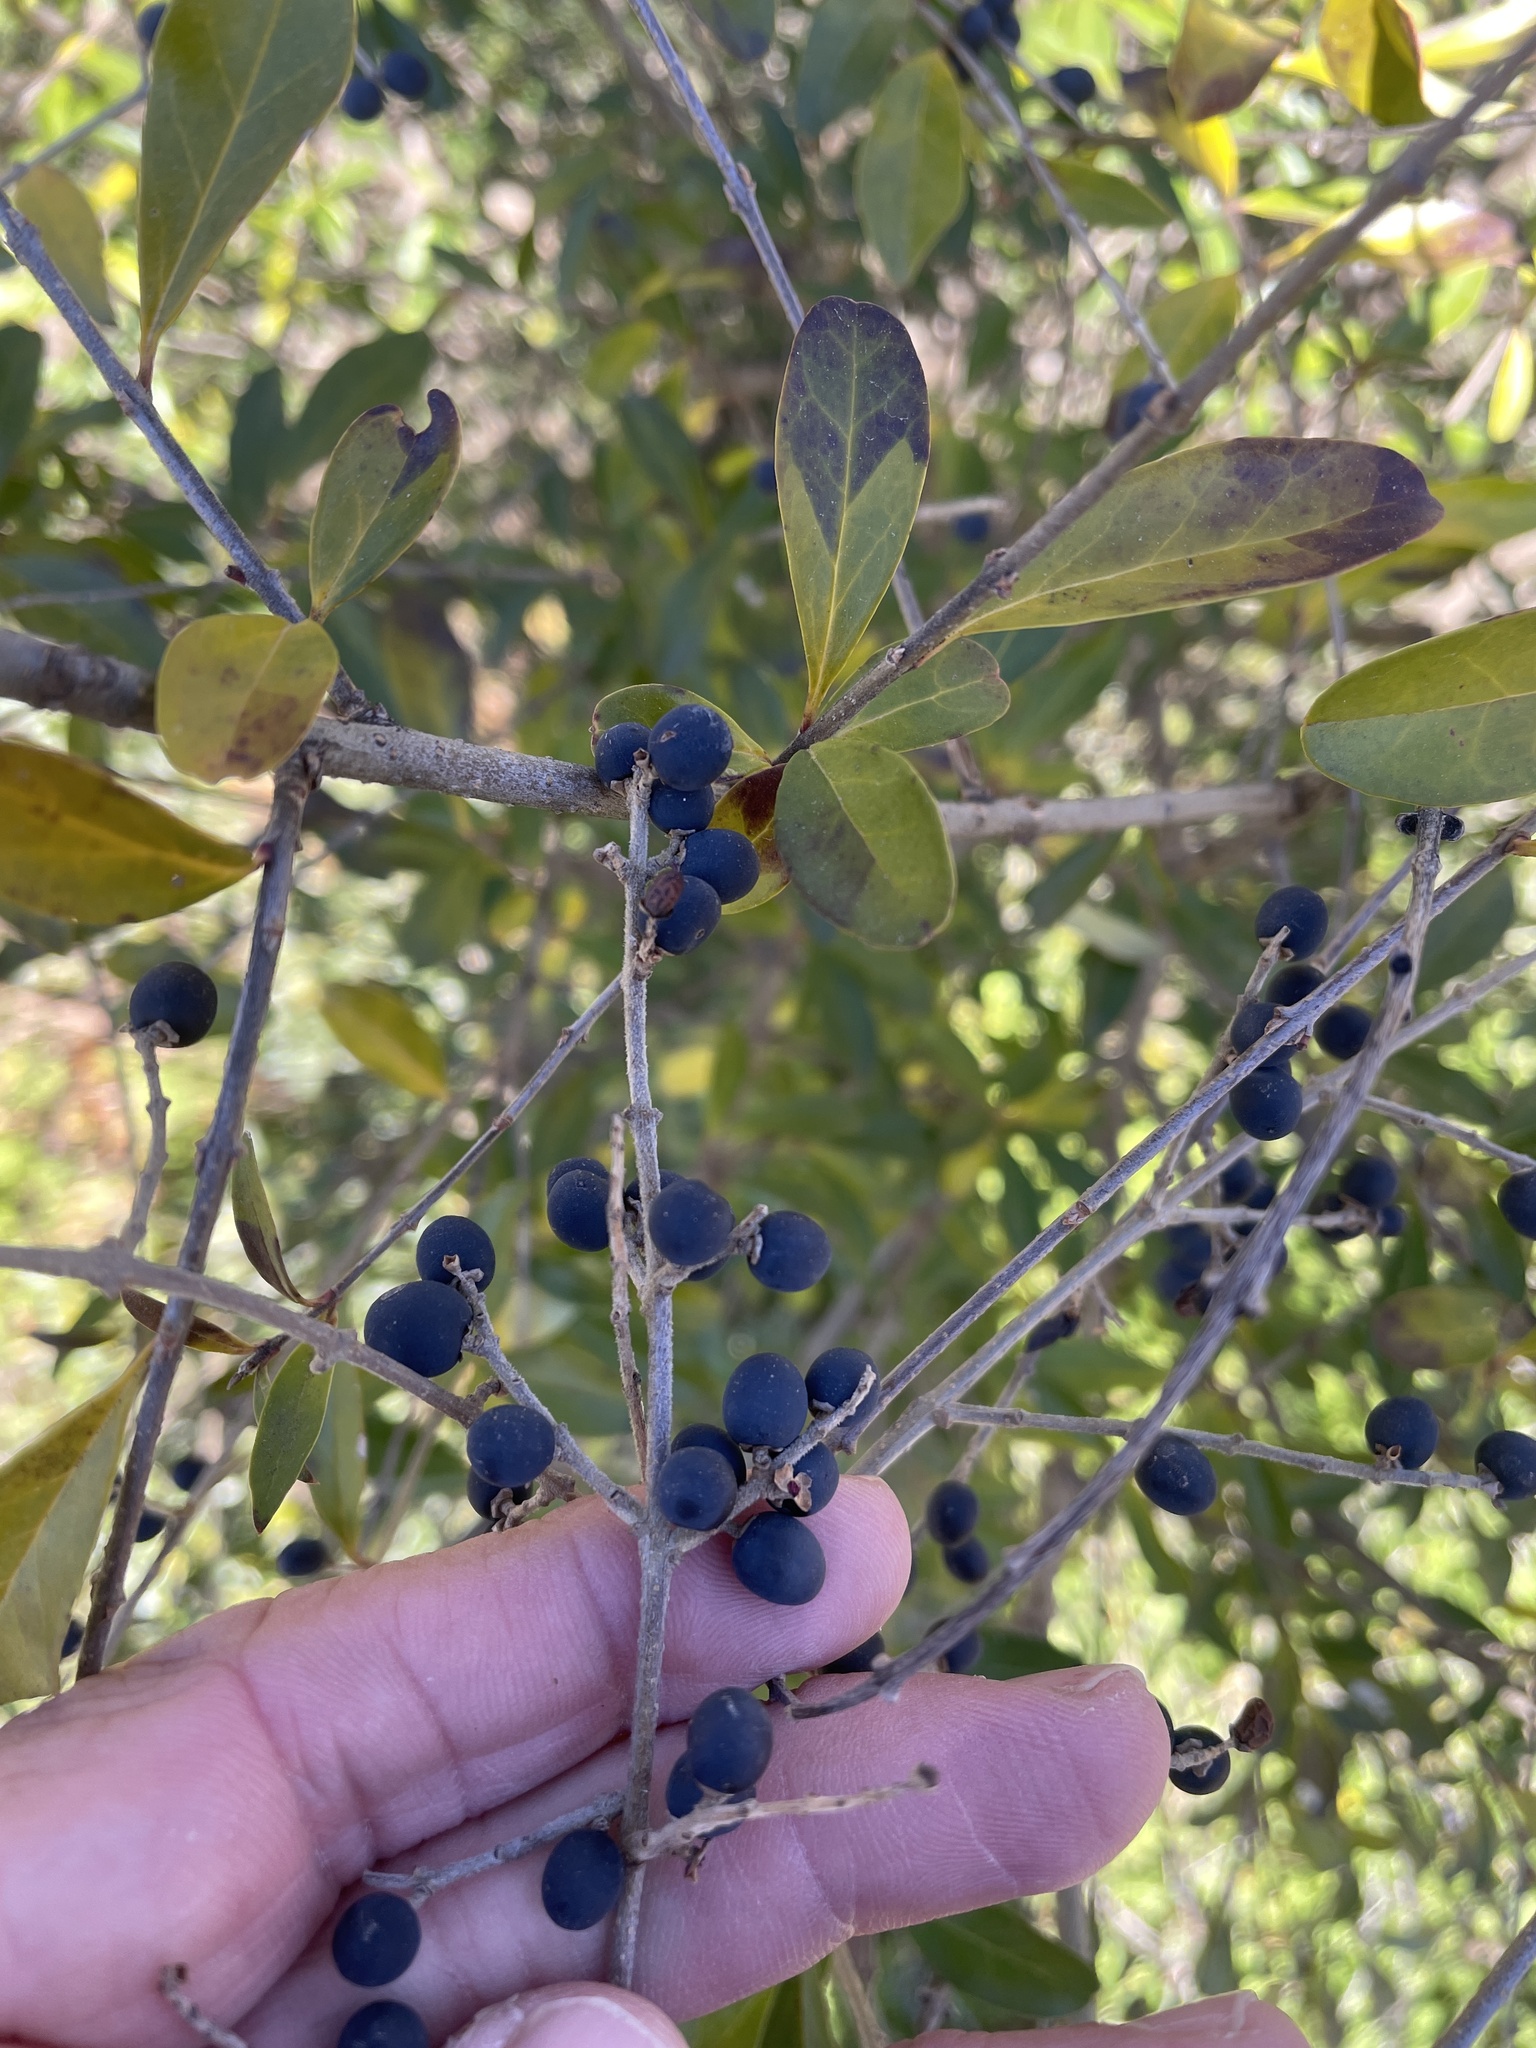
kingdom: Plantae
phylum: Tracheophyta
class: Magnoliopsida
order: Lamiales
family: Oleaceae
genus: Ligustrum
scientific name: Ligustrum quihoui
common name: Waxyleaf privet
